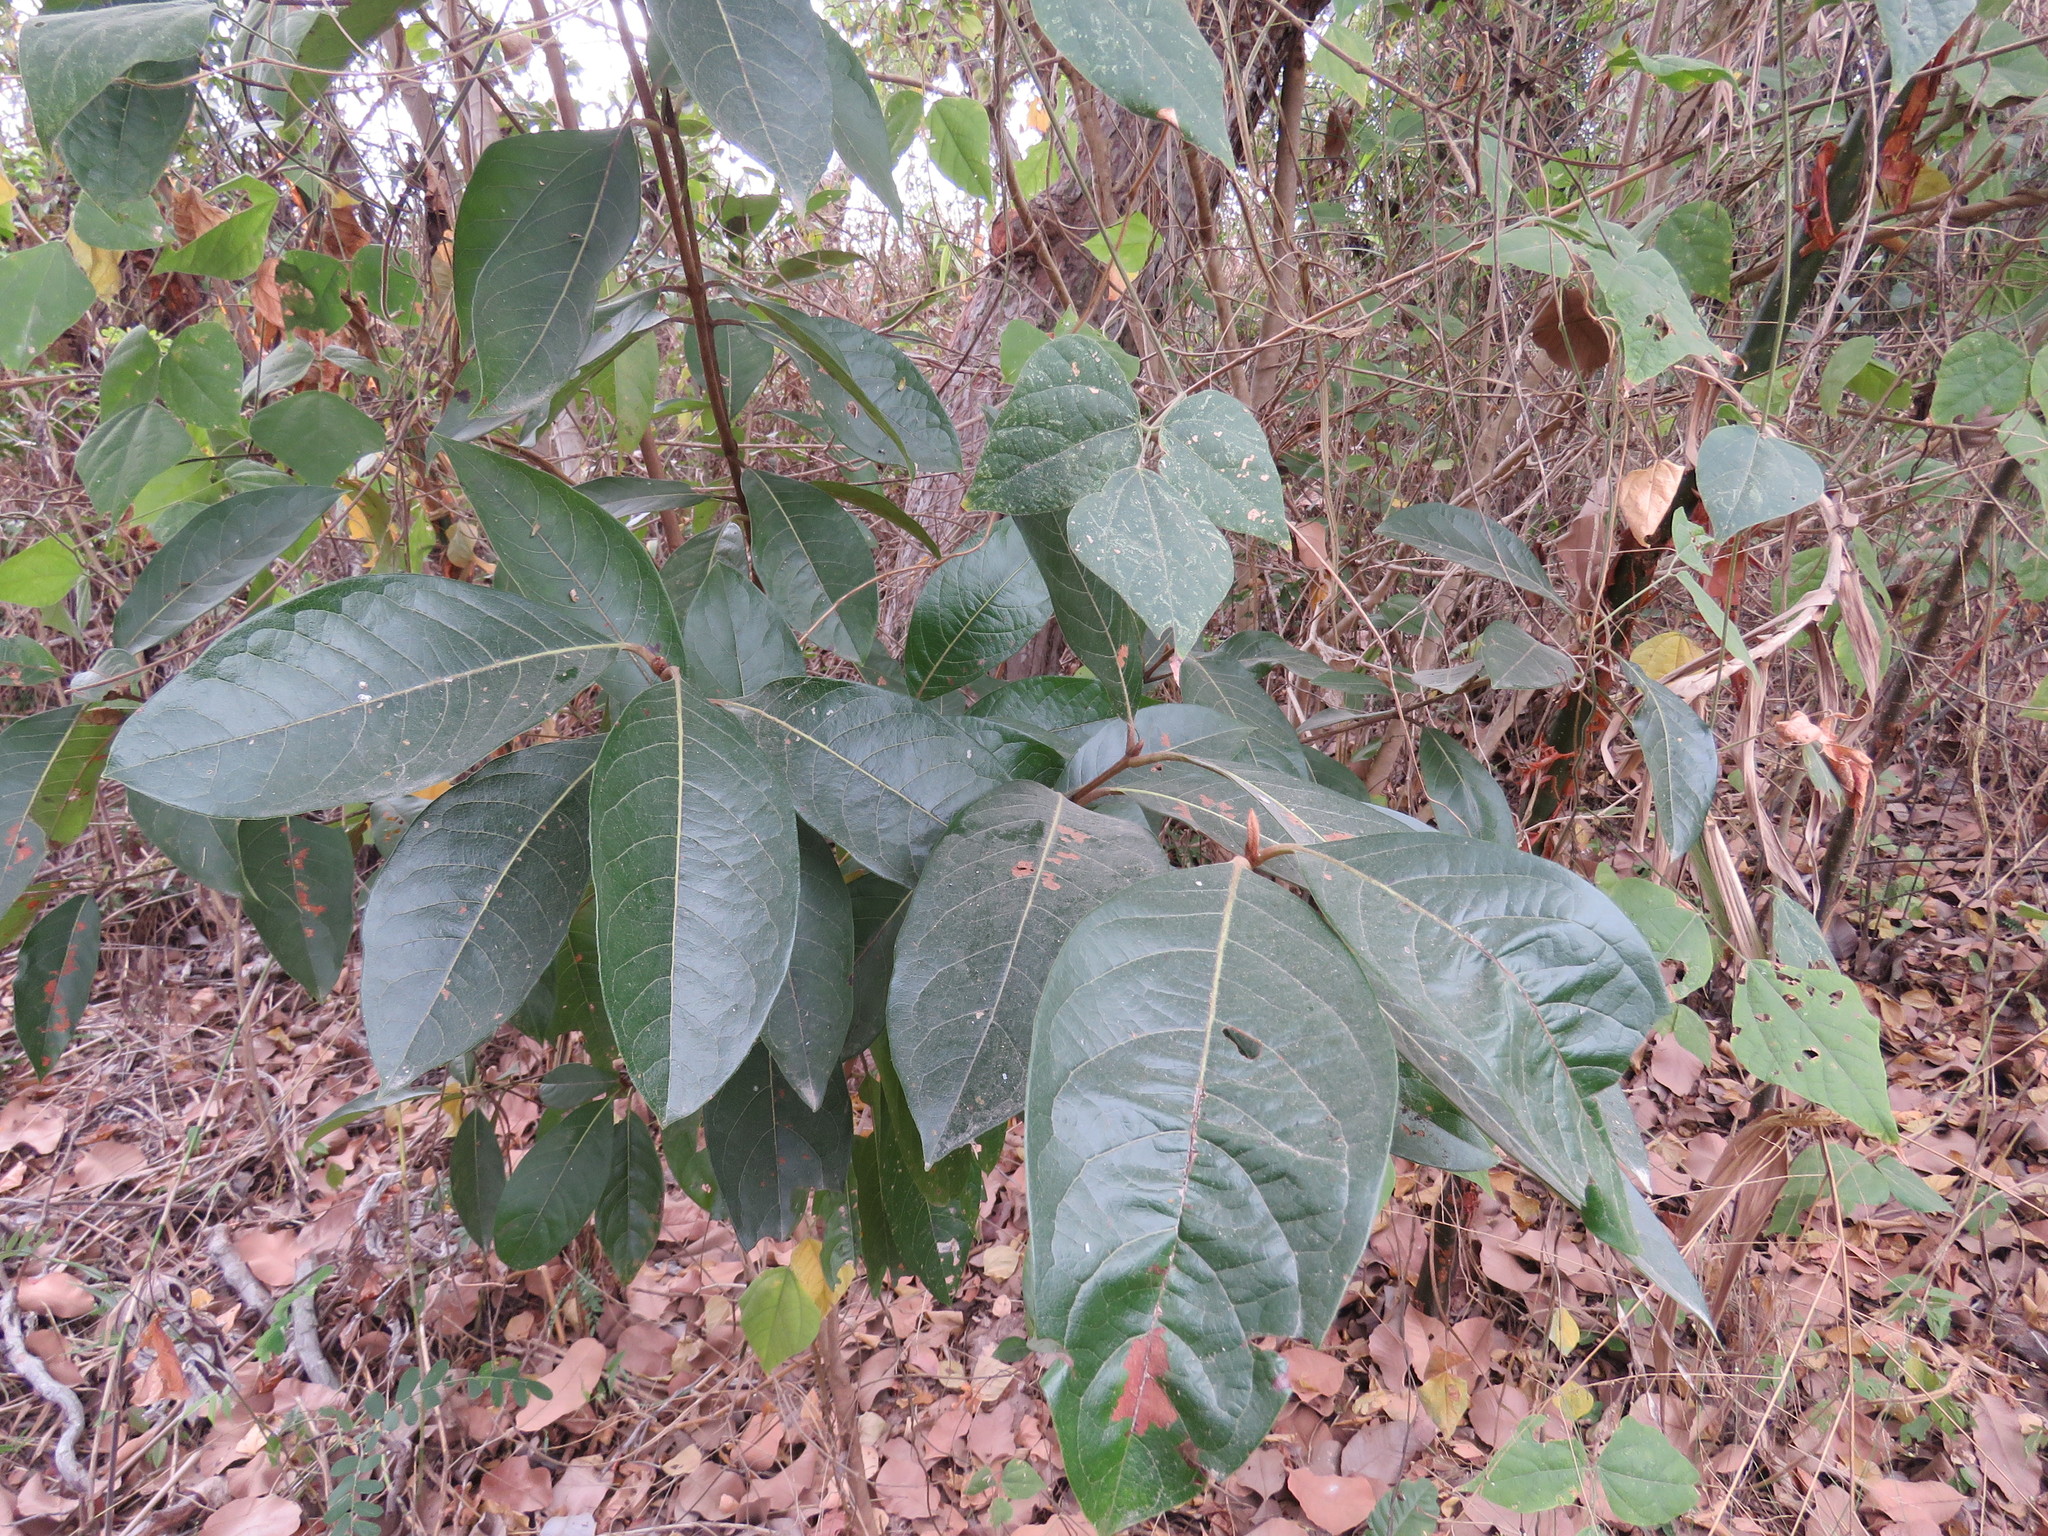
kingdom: Plantae
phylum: Tracheophyta
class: Magnoliopsida
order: Malpighiales
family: Malpighiaceae
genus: Byrsonima
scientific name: Byrsonima crassifolia
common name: Golden spoon
